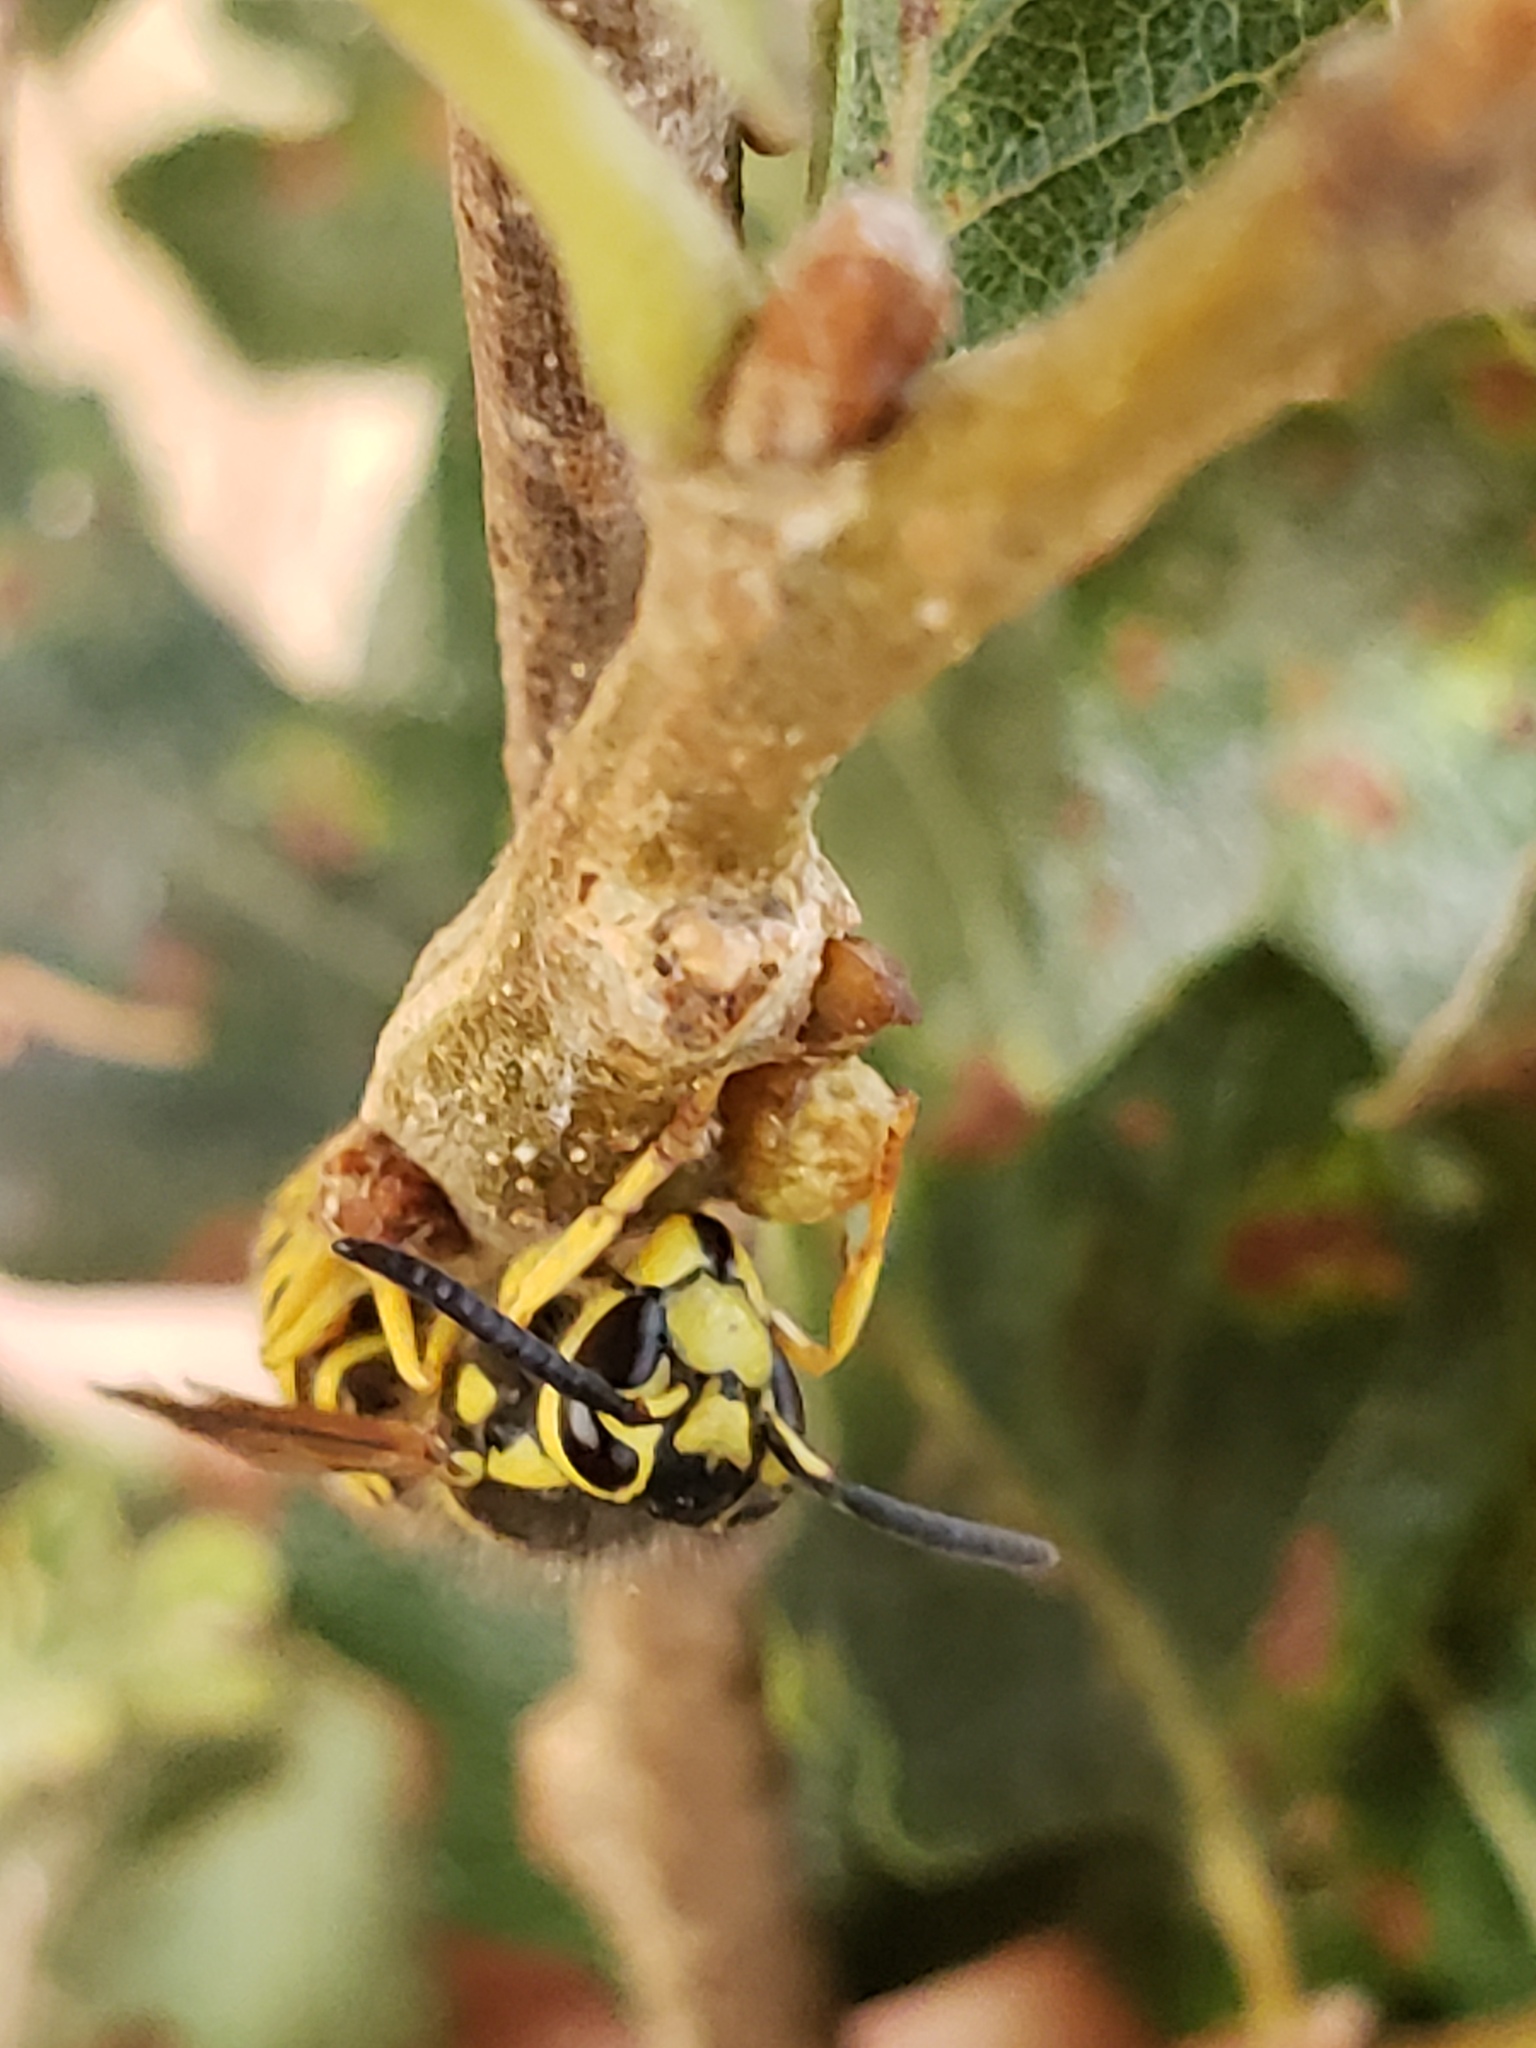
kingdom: Animalia
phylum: Arthropoda
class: Insecta
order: Hymenoptera
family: Vespidae
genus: Vespula
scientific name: Vespula pensylvanica
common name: Western yellowjacket
